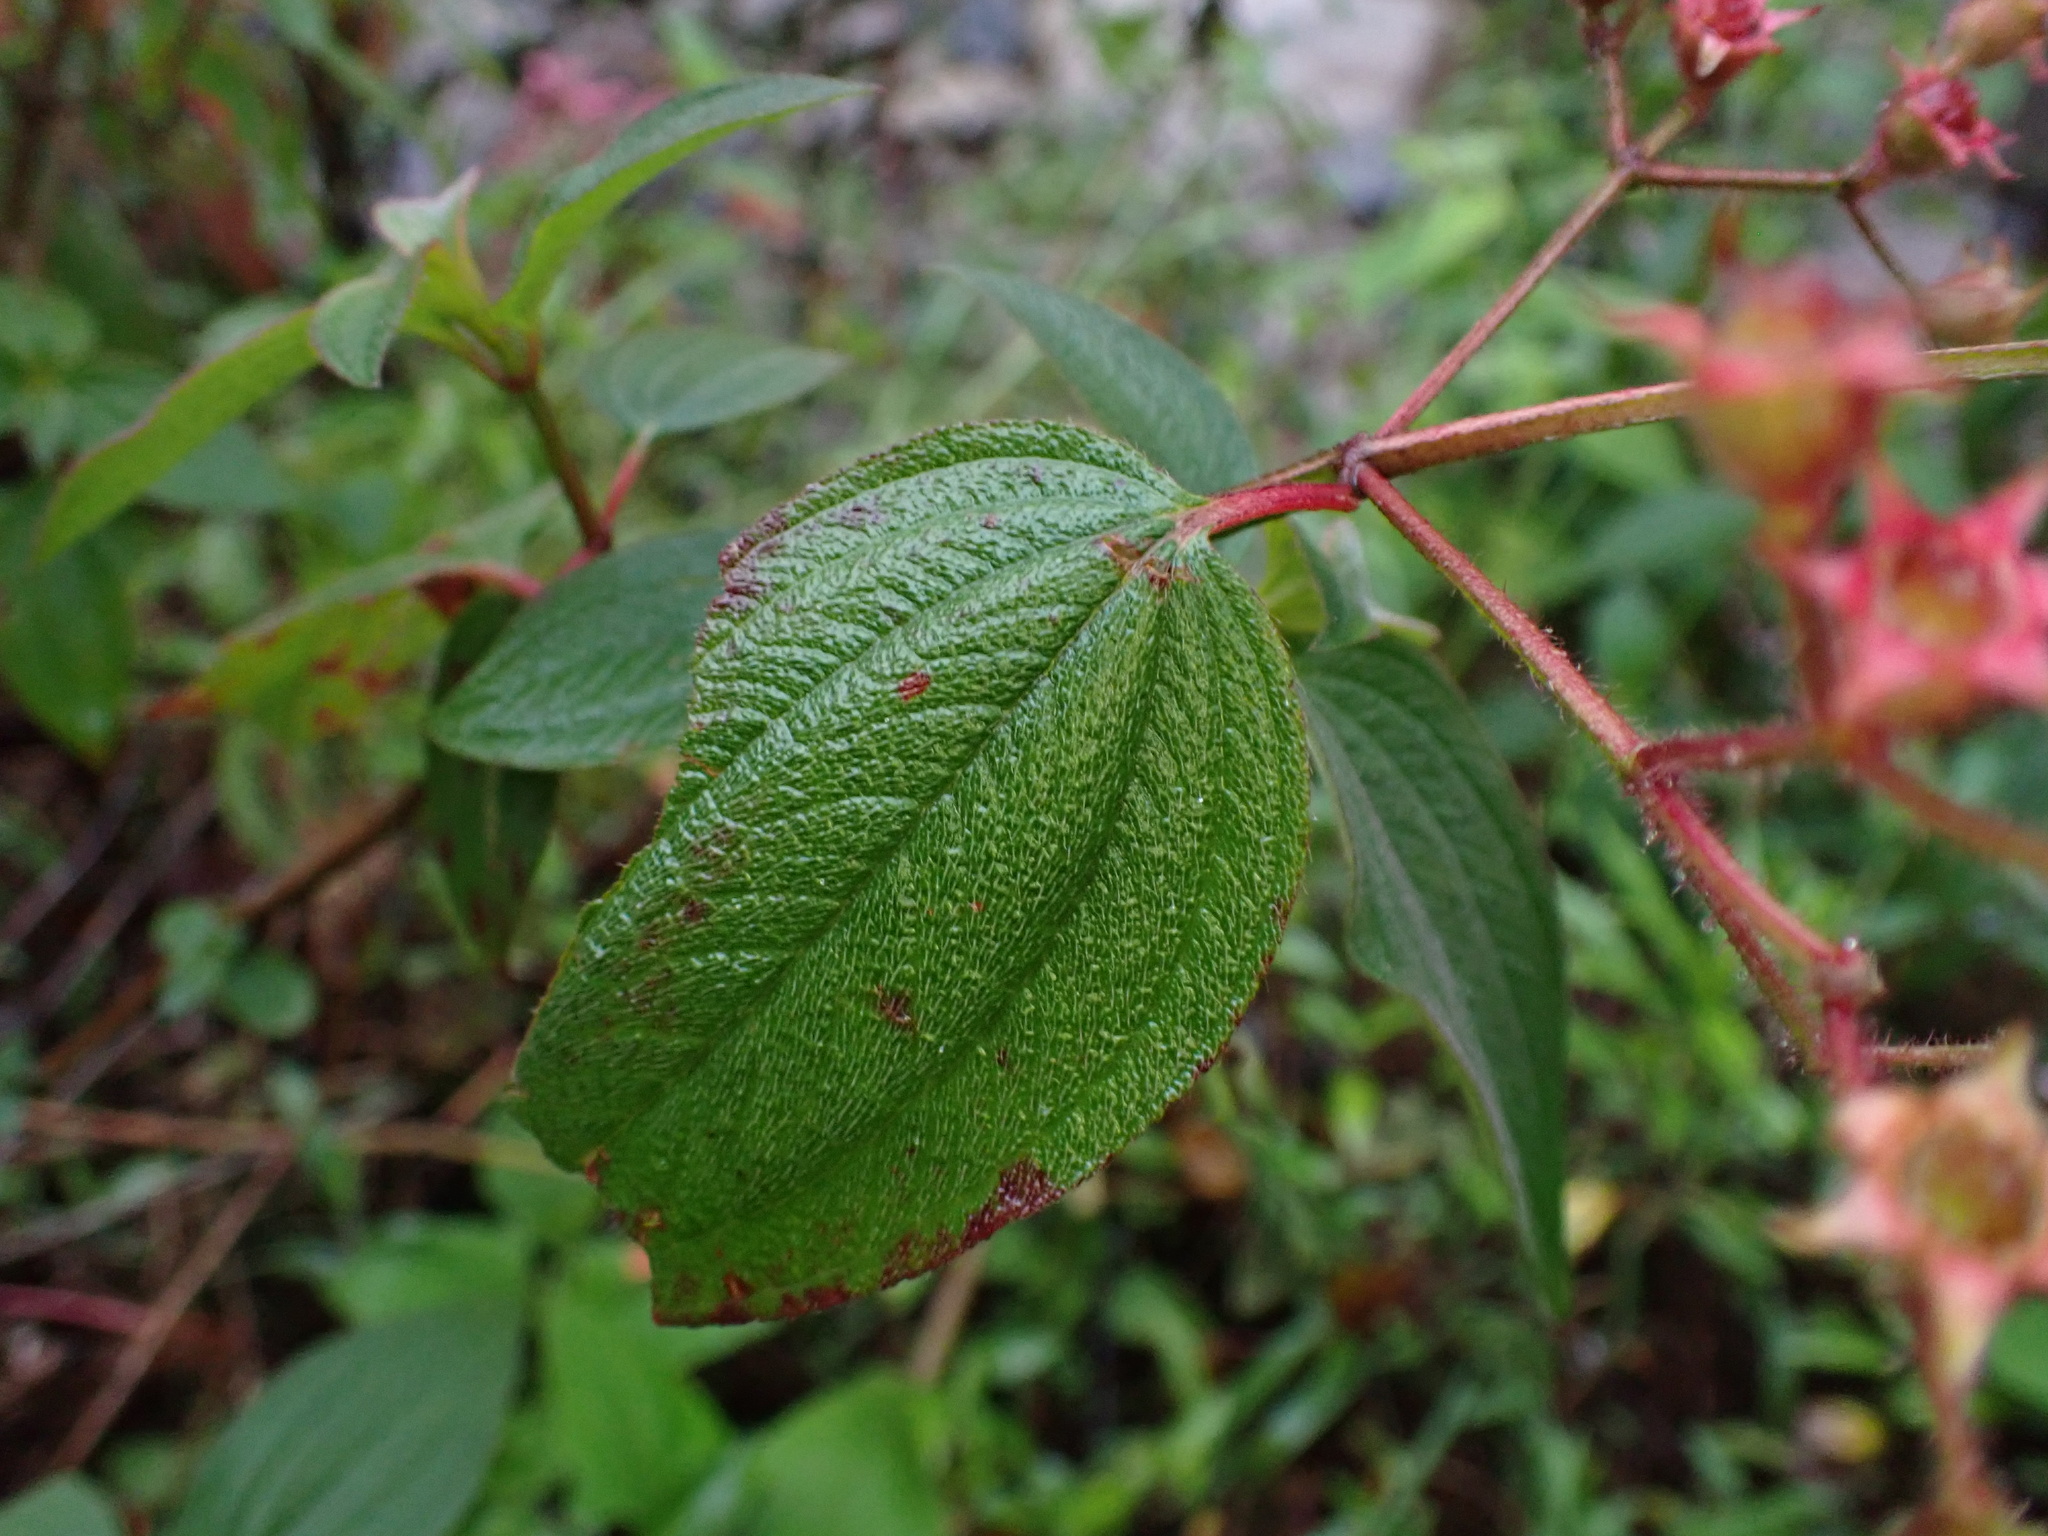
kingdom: Plantae
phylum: Tracheophyta
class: Magnoliopsida
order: Myrtales
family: Melastomataceae
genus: Chaetogastra
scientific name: Chaetogastra incarum
